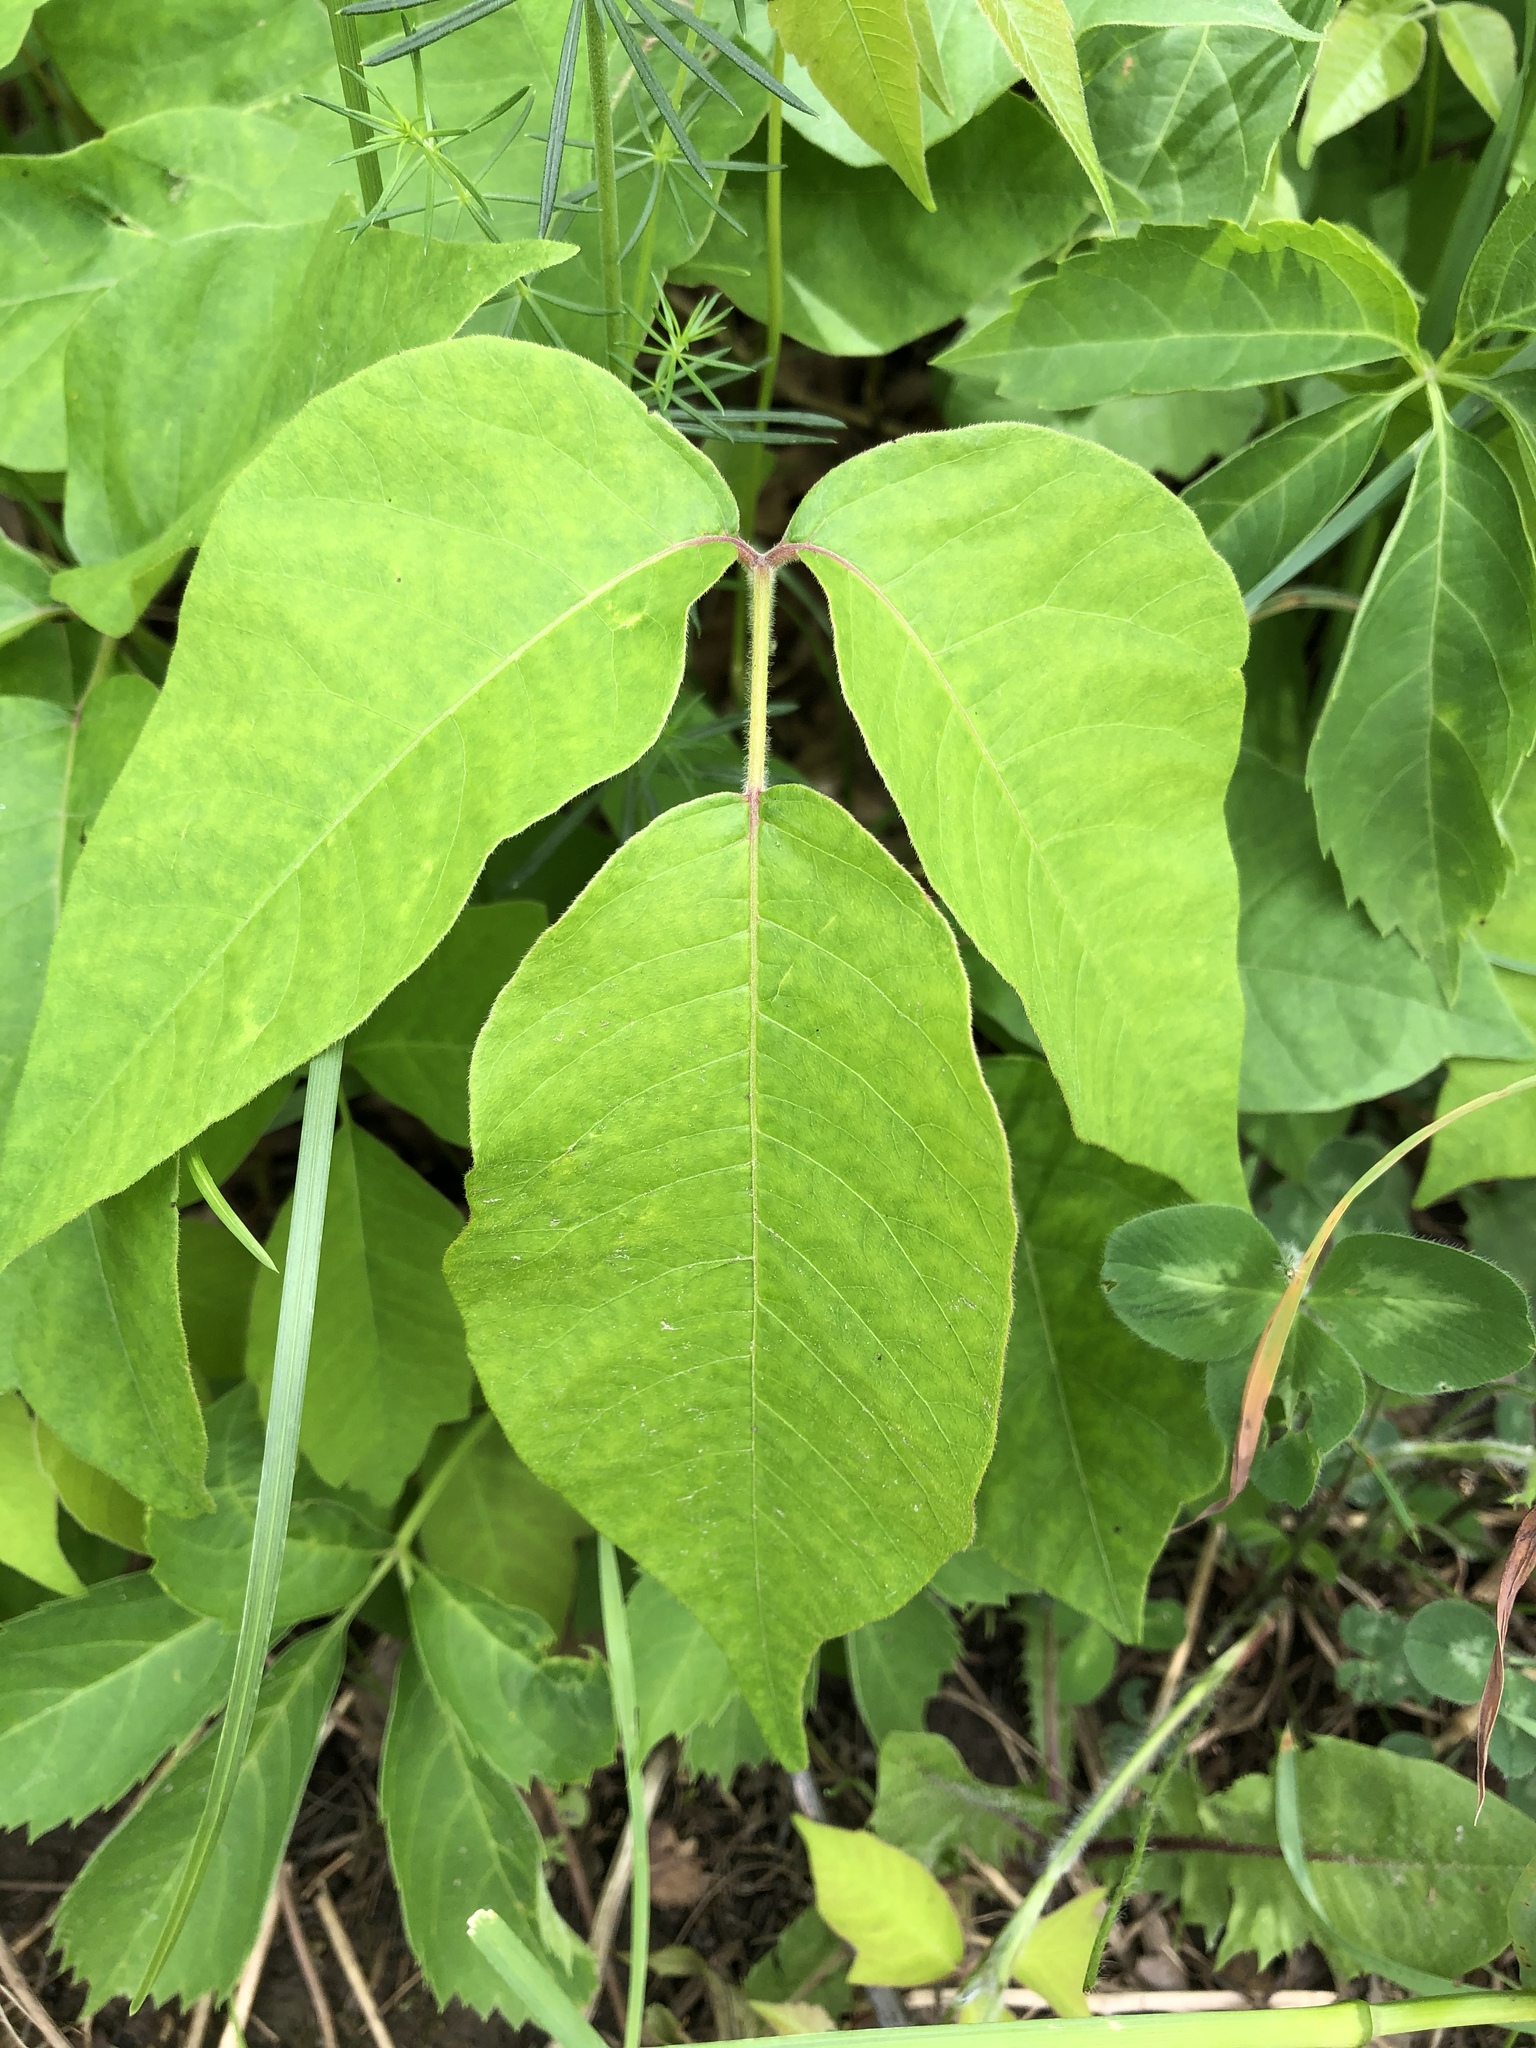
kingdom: Plantae
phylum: Tracheophyta
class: Magnoliopsida
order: Sapindales
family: Anacardiaceae
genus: Toxicodendron
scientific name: Toxicodendron rydbergii
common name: Rydberg's poison-ivy
